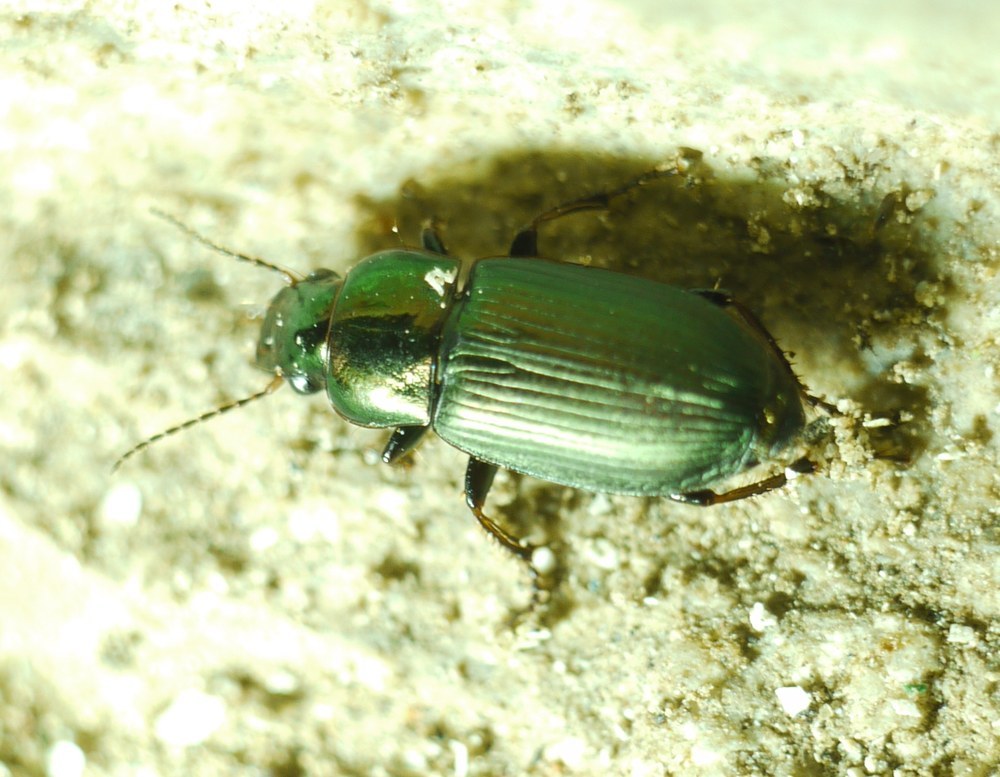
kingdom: Animalia
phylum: Arthropoda
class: Insecta
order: Coleoptera
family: Carabidae
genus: Harpalus
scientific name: Harpalus distinguendus
